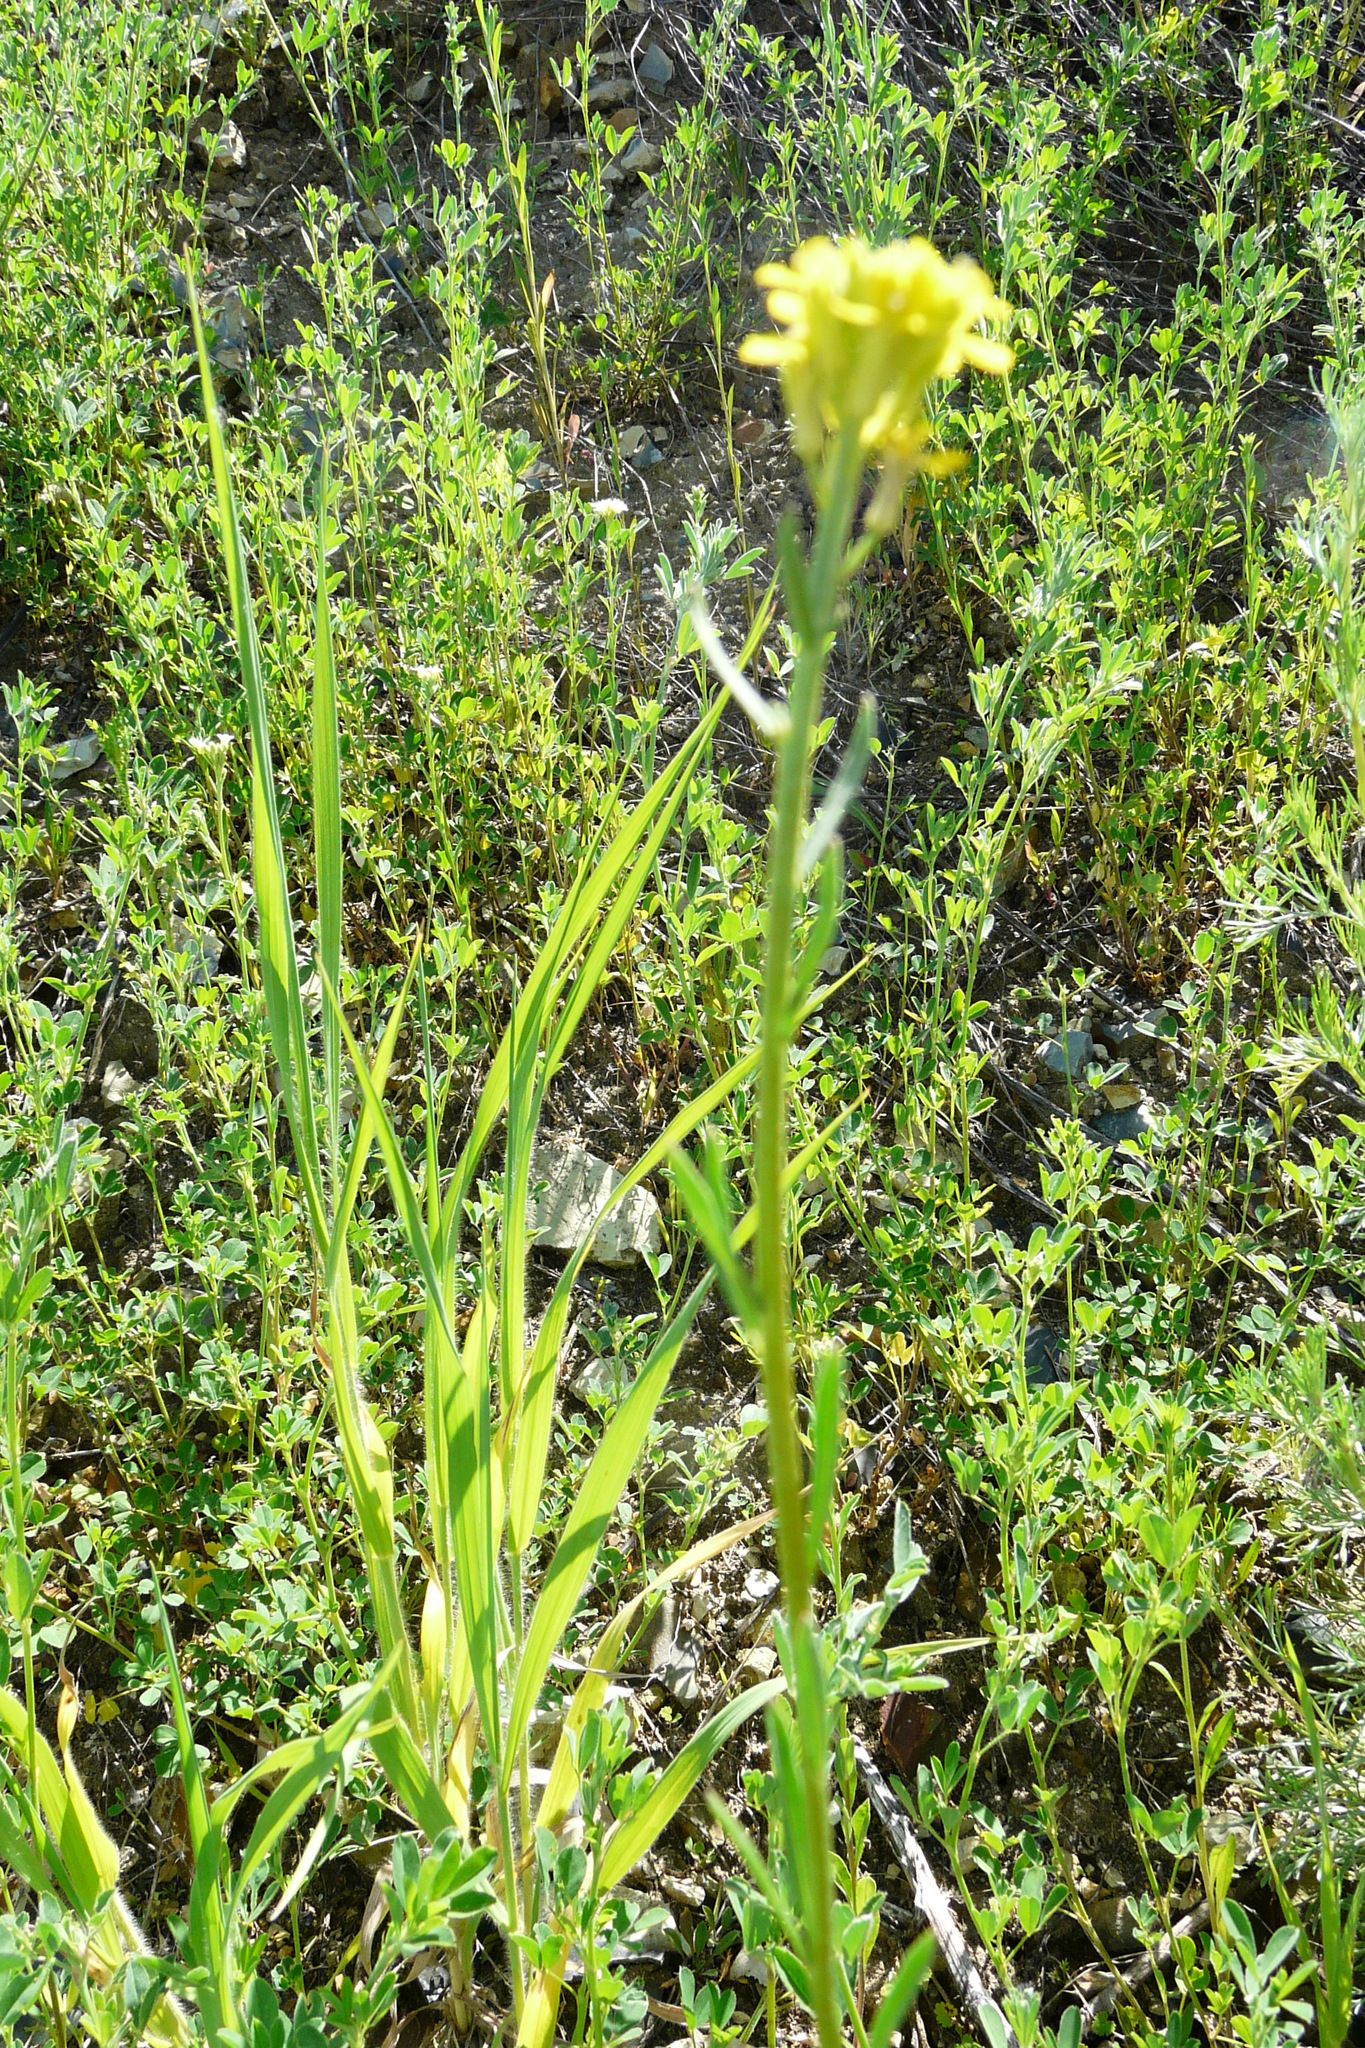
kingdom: Plantae
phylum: Tracheophyta
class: Magnoliopsida
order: Brassicales
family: Brassicaceae
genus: Erysimum
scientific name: Erysimum cheiranthoides
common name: Treacle mustard
